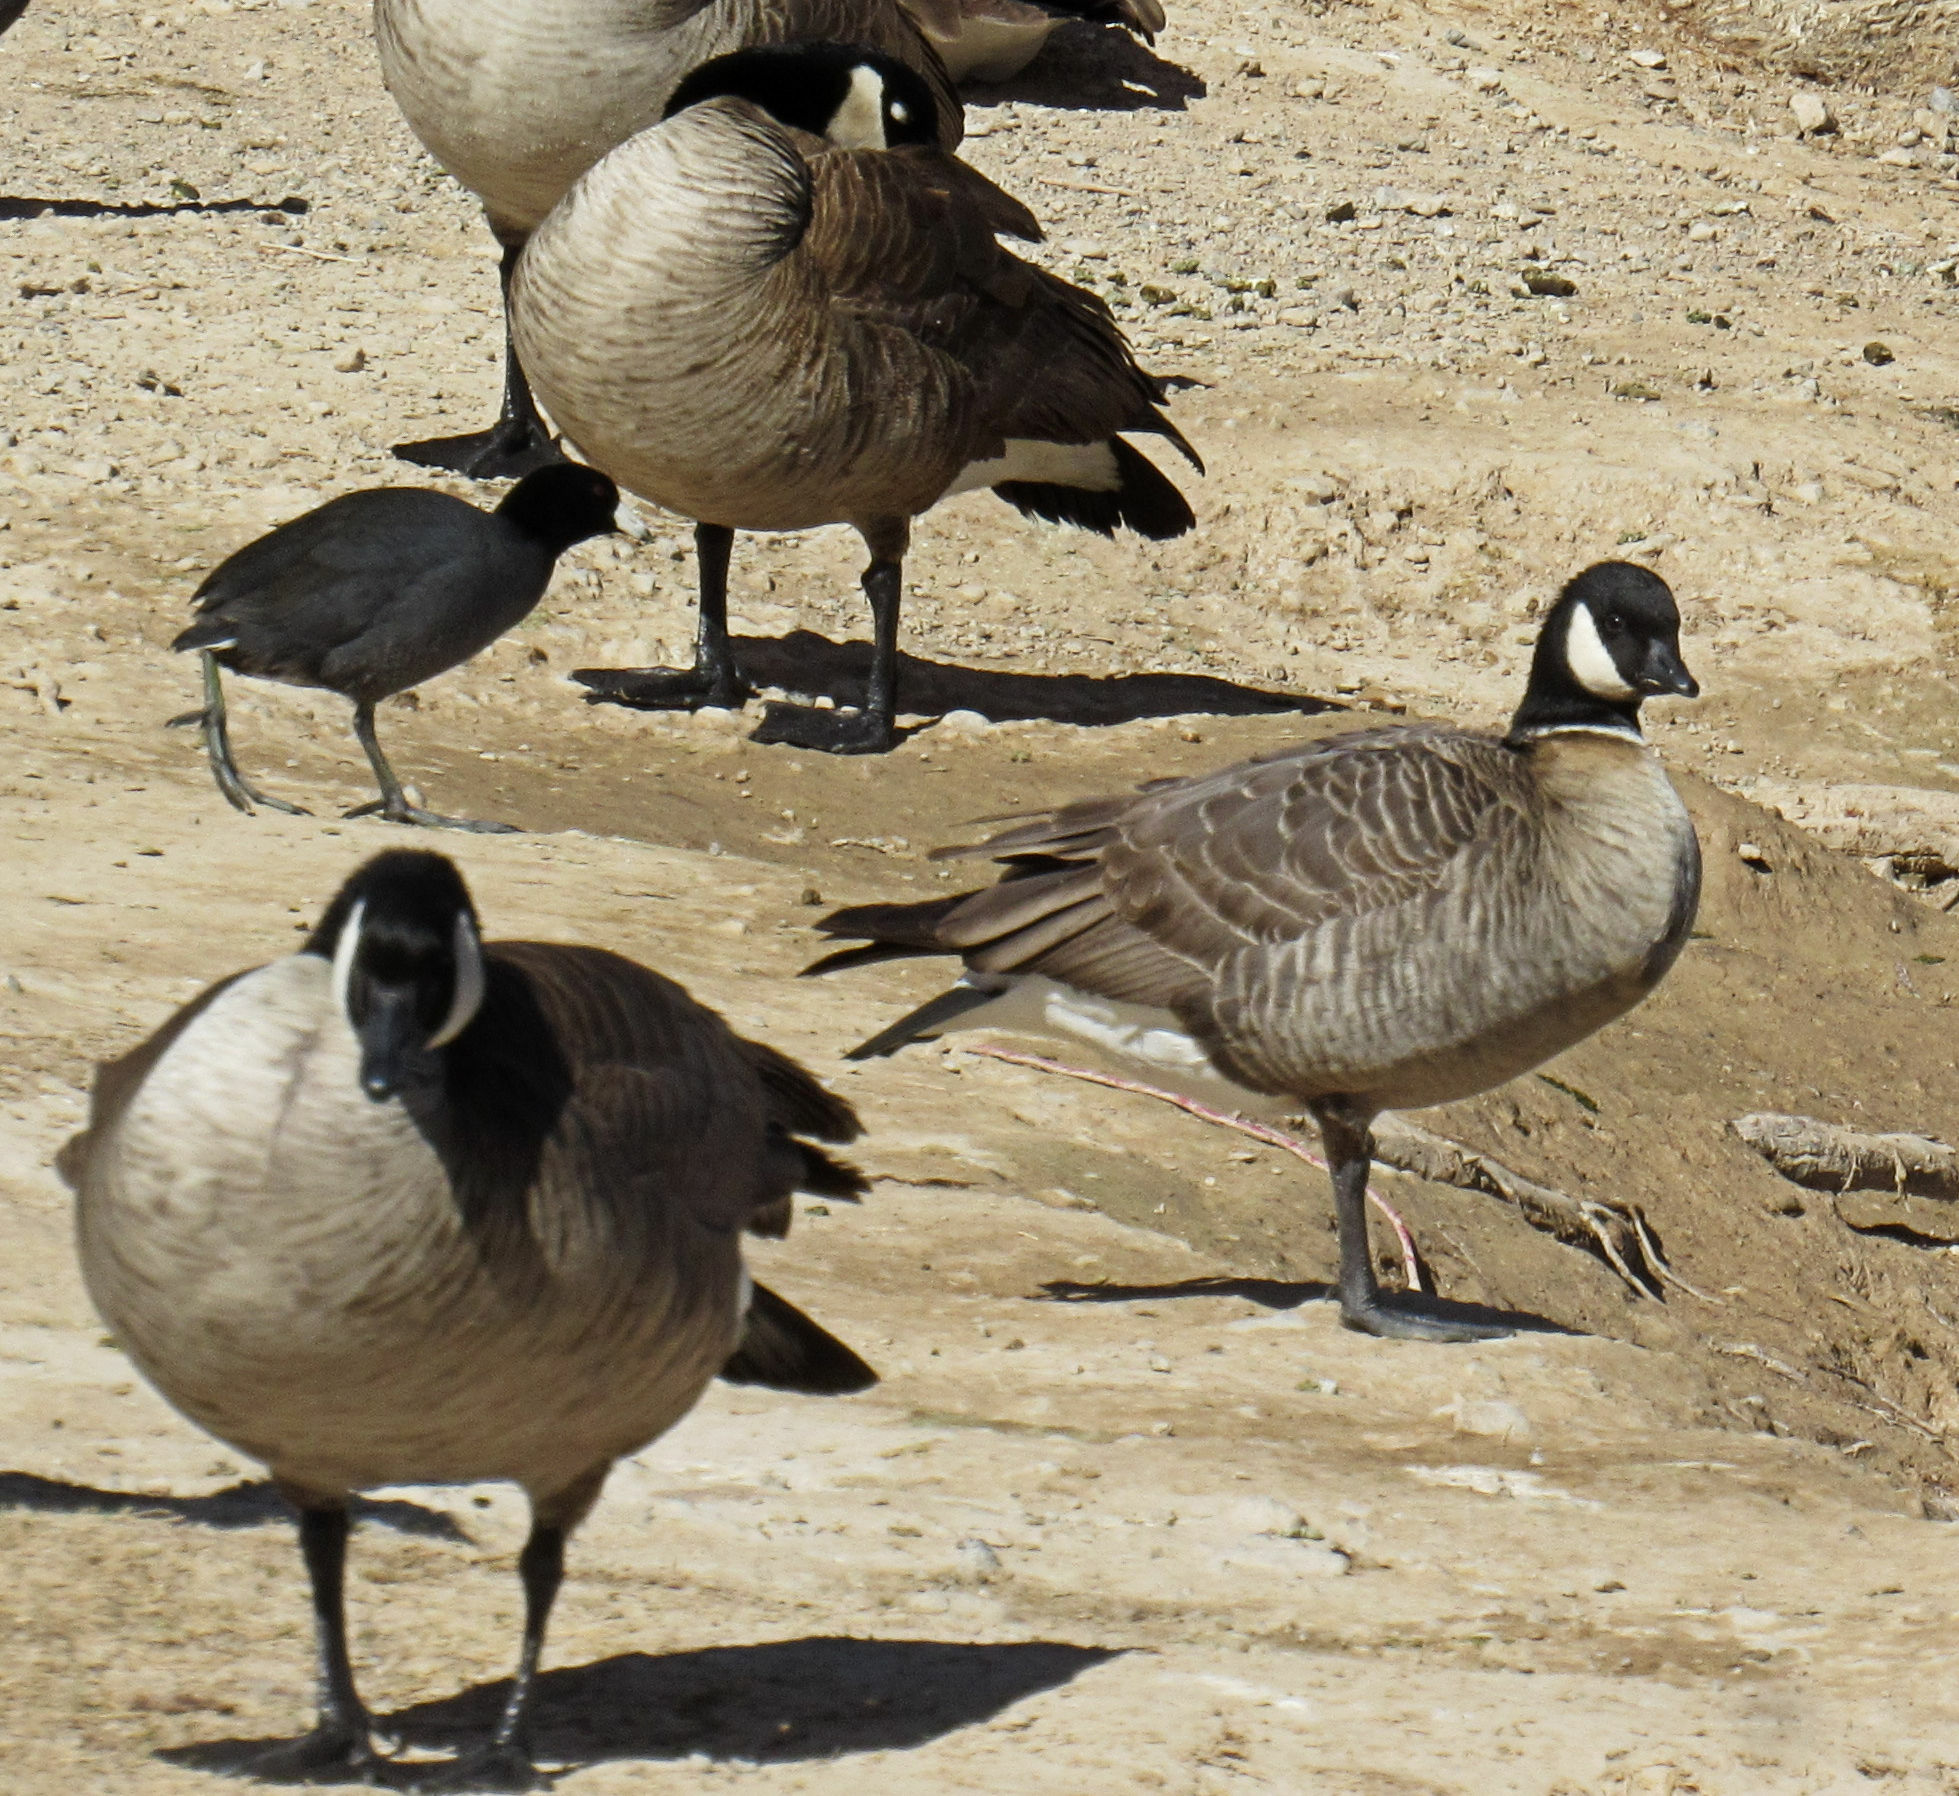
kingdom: Animalia
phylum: Chordata
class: Aves
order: Anseriformes
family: Anatidae
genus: Branta
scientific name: Branta hutchinsii
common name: Cackling goose
